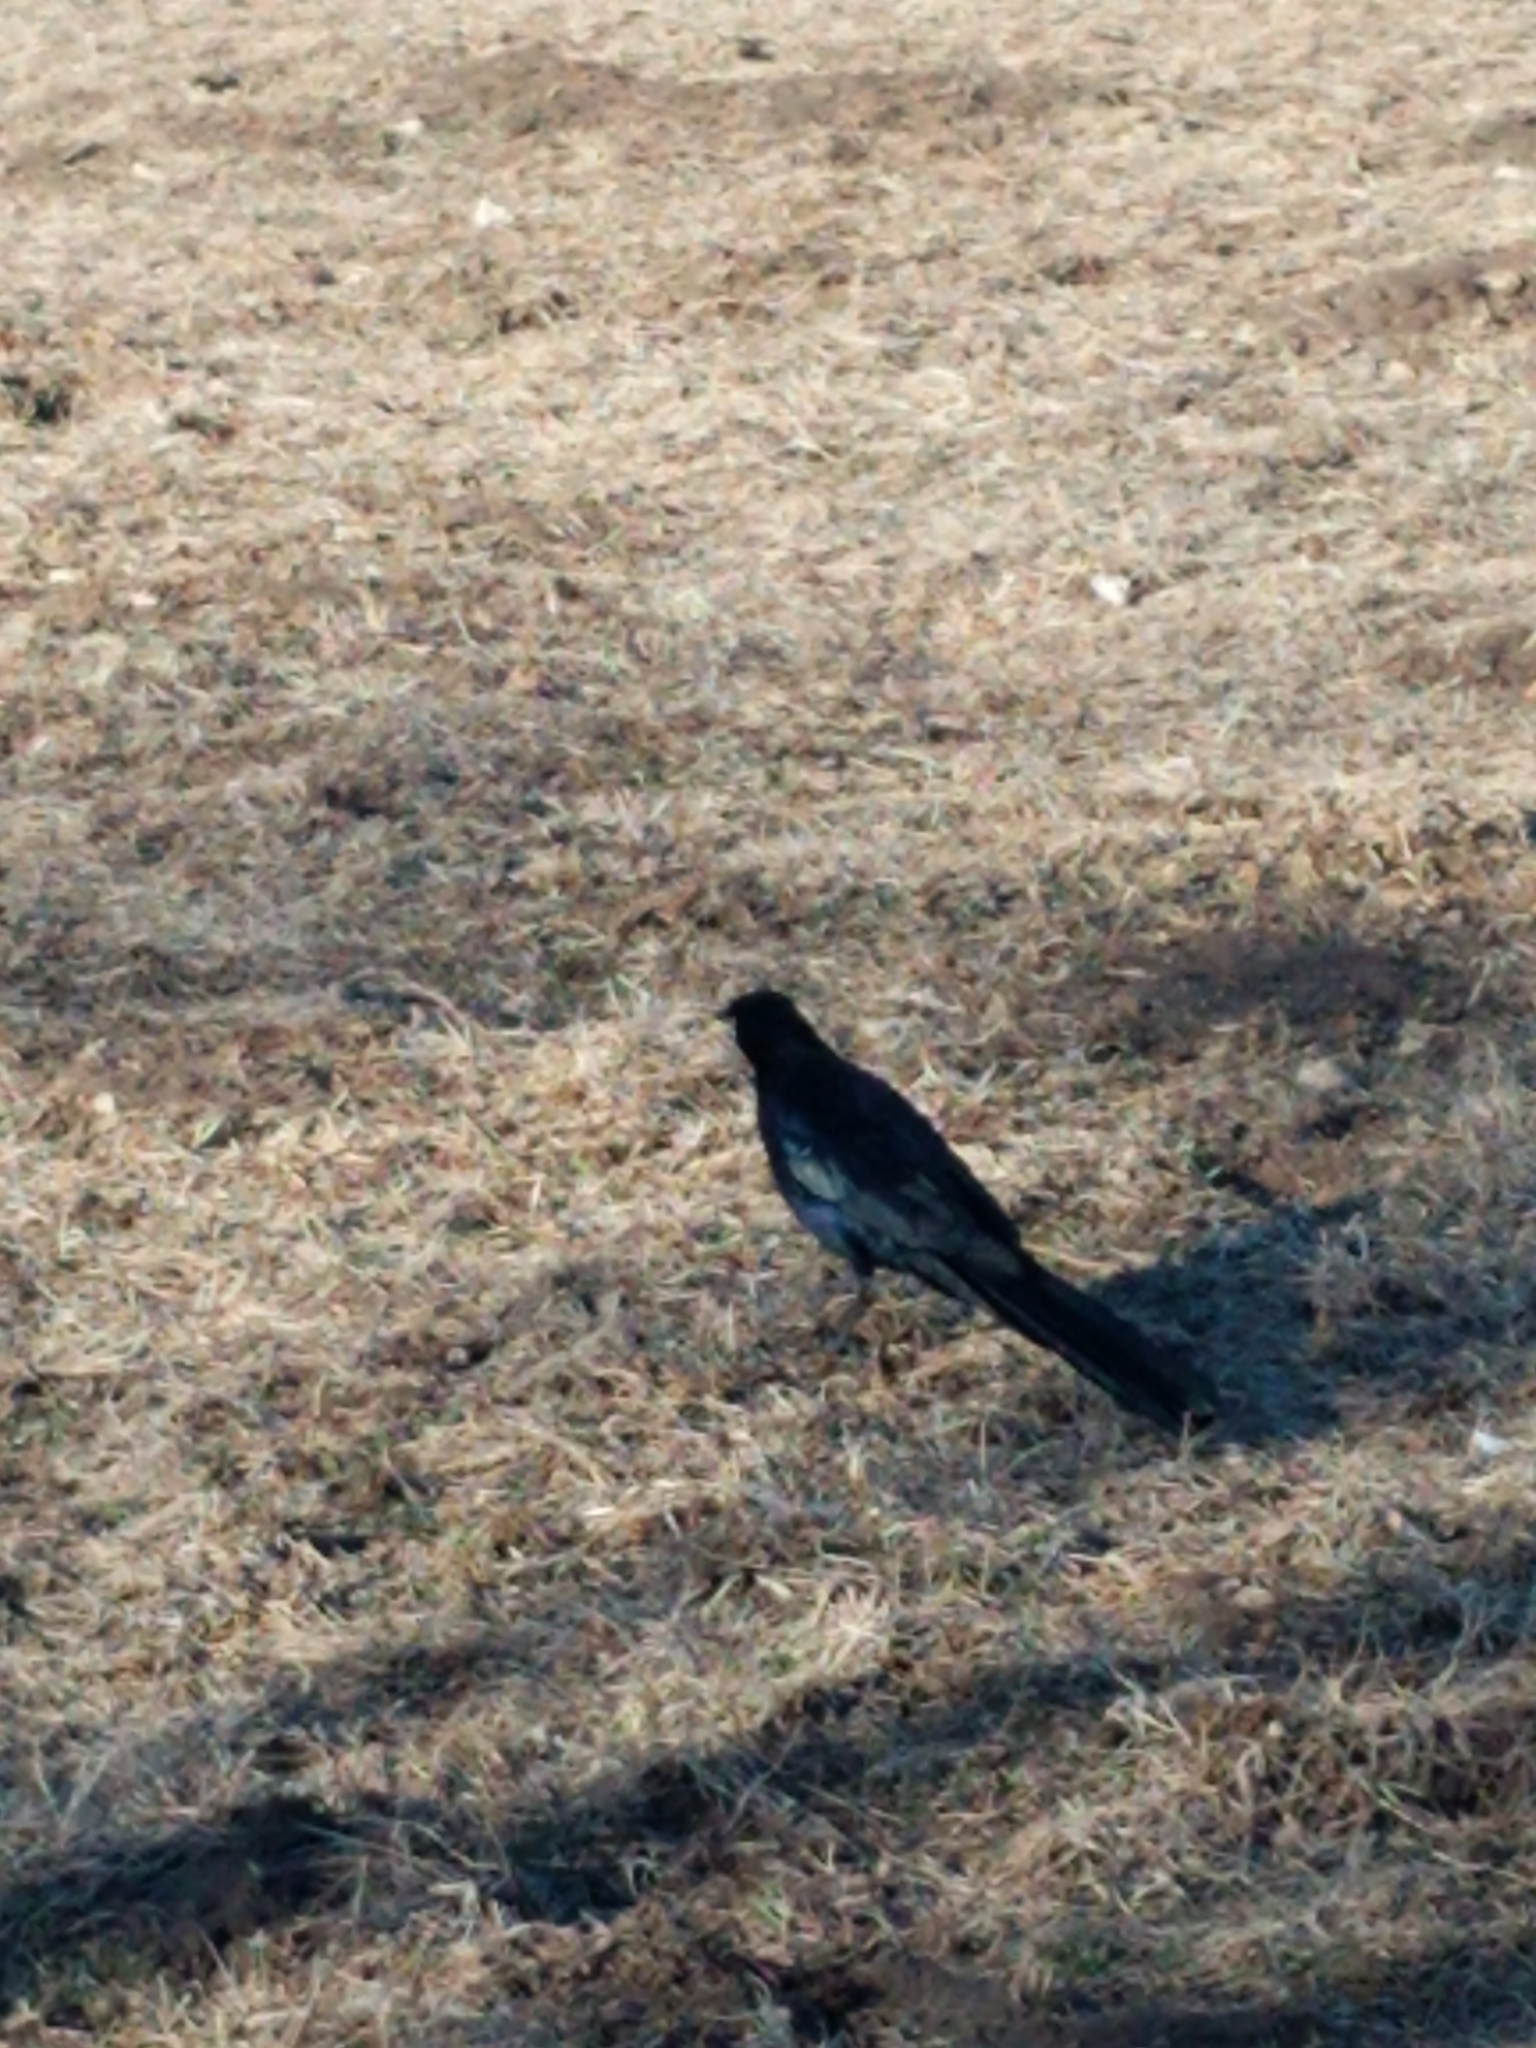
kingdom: Animalia
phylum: Chordata
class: Aves
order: Passeriformes
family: Icteridae
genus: Quiscalus
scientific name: Quiscalus mexicanus
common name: Great-tailed grackle
